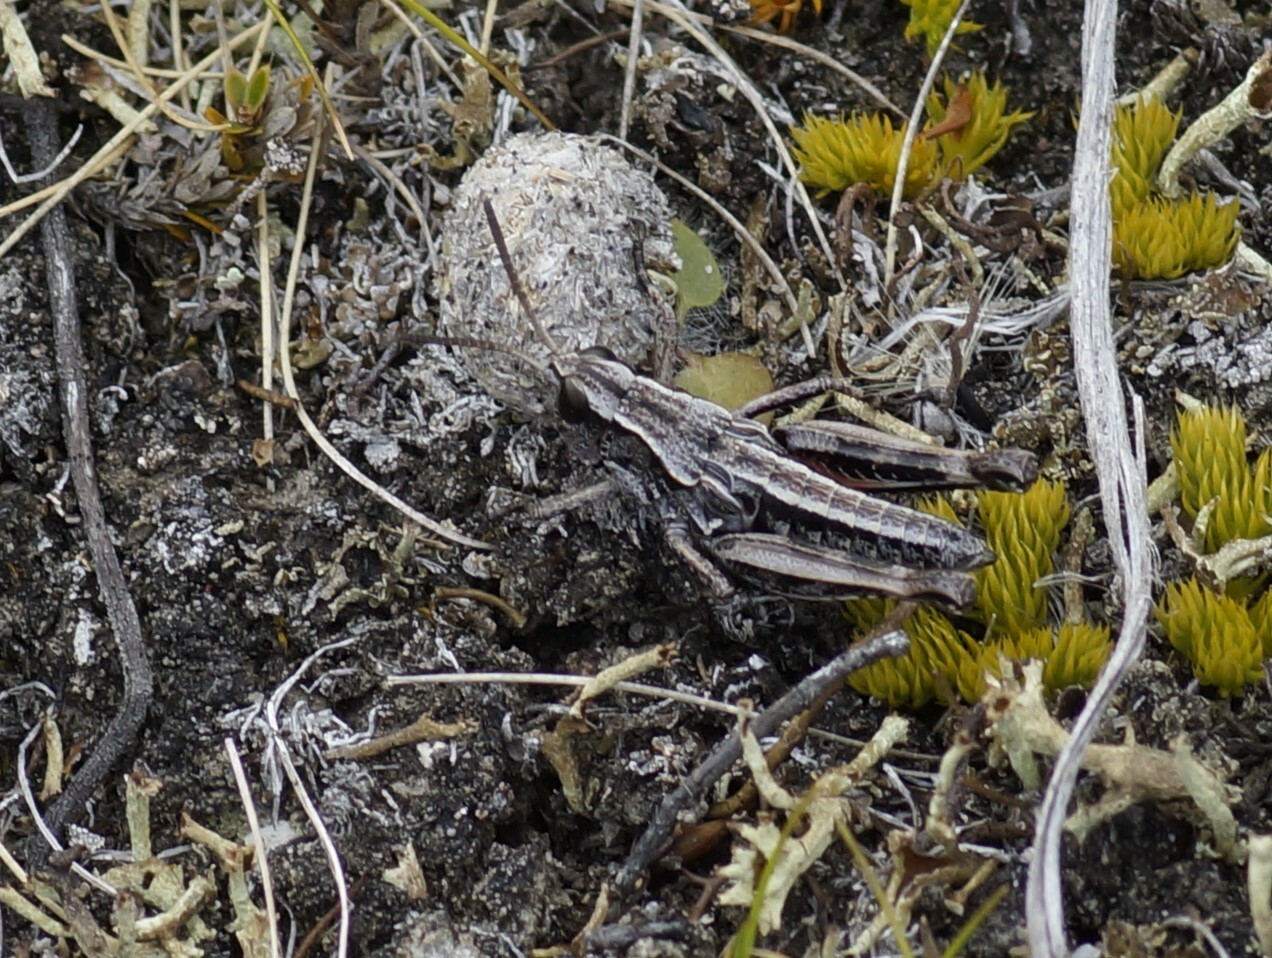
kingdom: Animalia
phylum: Arthropoda
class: Insecta
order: Orthoptera
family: Acrididae
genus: Sigaus
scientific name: Sigaus australis
